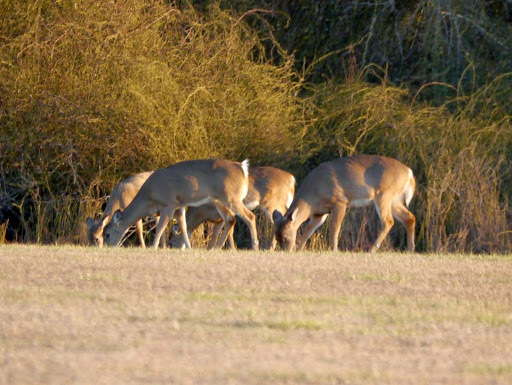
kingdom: Animalia
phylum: Chordata
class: Mammalia
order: Artiodactyla
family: Cervidae
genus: Odocoileus
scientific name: Odocoileus virginianus
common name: White-tailed deer
